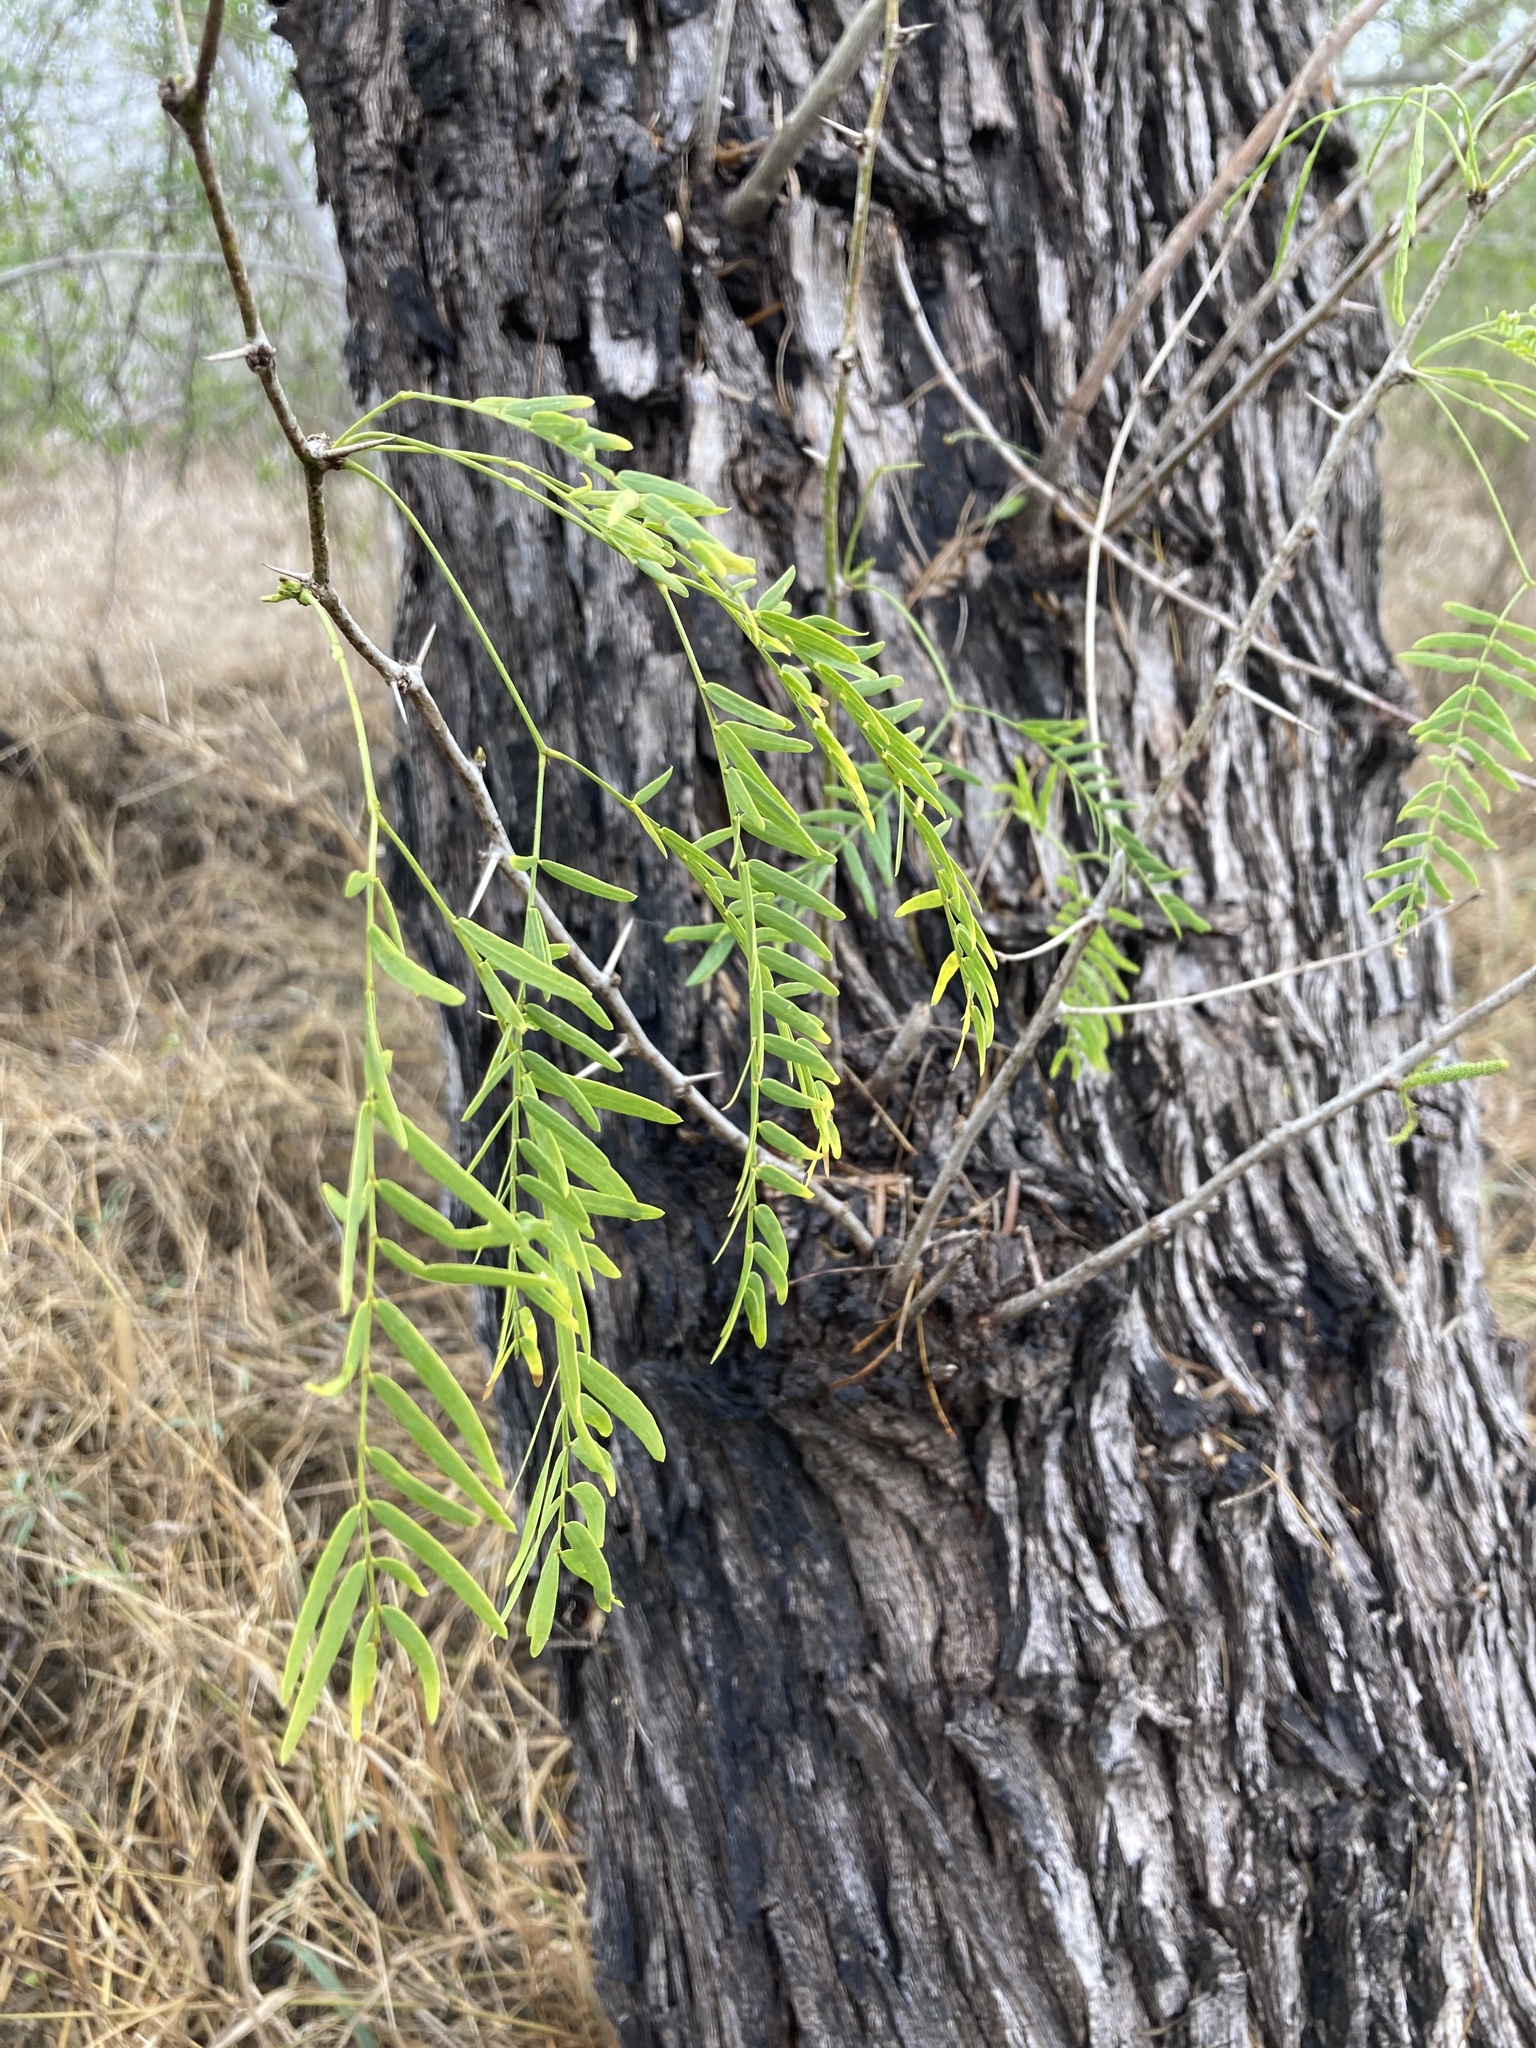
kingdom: Plantae
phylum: Tracheophyta
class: Magnoliopsida
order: Fabales
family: Fabaceae
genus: Prosopis
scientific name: Prosopis glandulosa
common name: Honey mesquite
